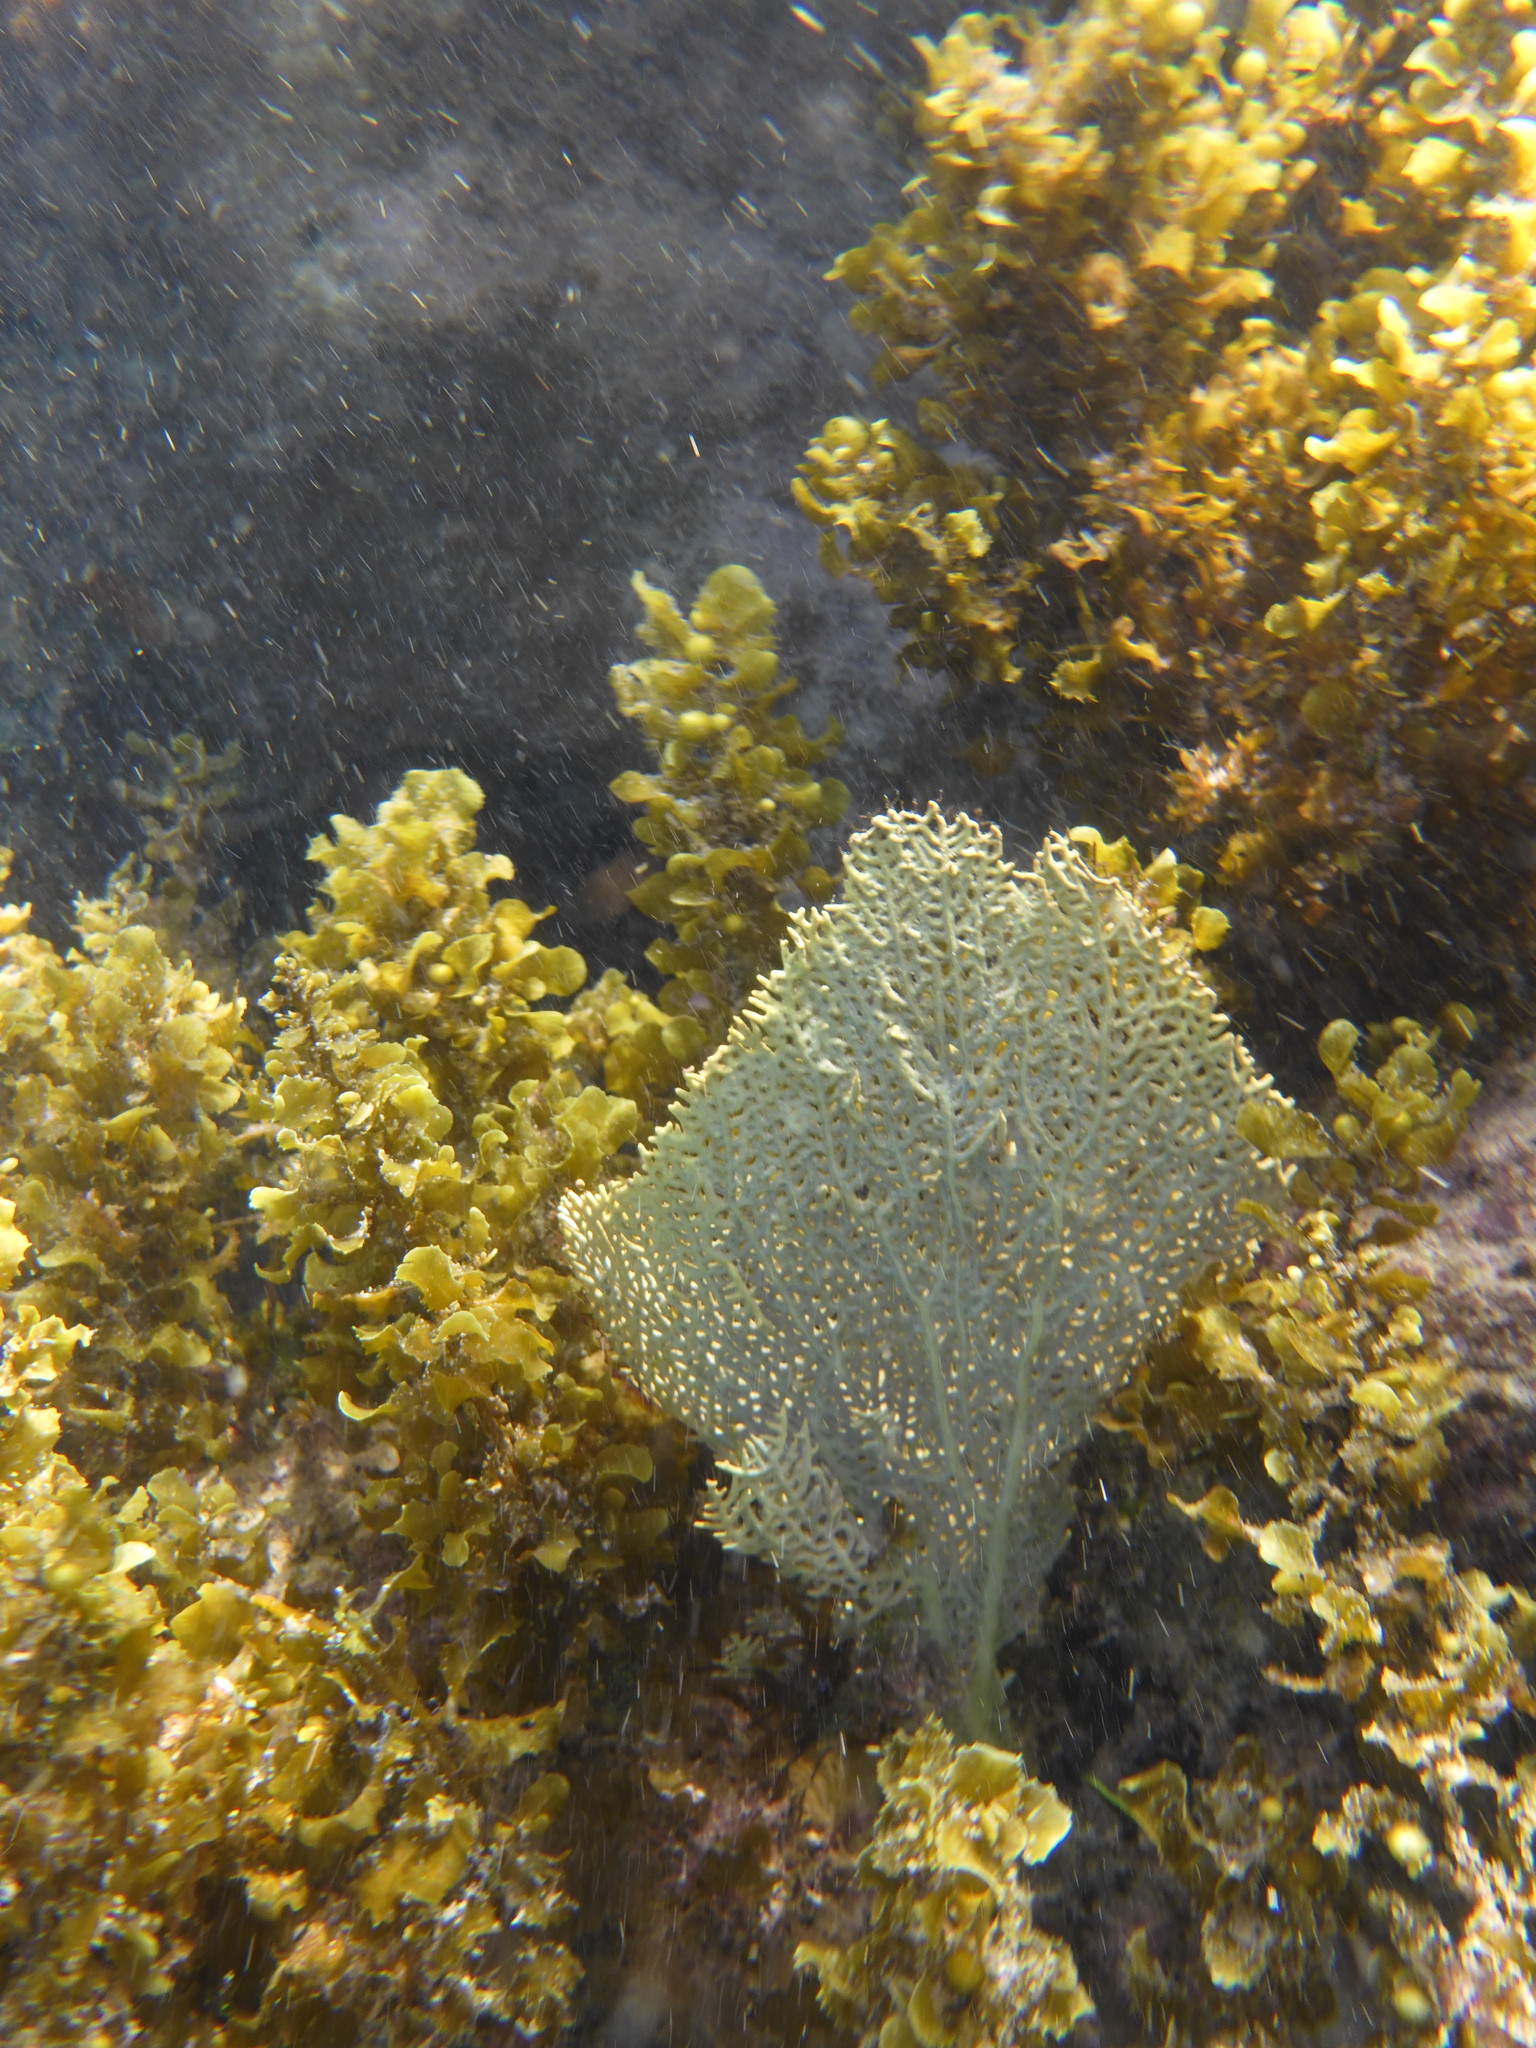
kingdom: Animalia
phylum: Cnidaria
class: Anthozoa
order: Malacalcyonacea
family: Gorgoniidae
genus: Gorgonia
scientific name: Gorgonia ventalina
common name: Common sea fan
